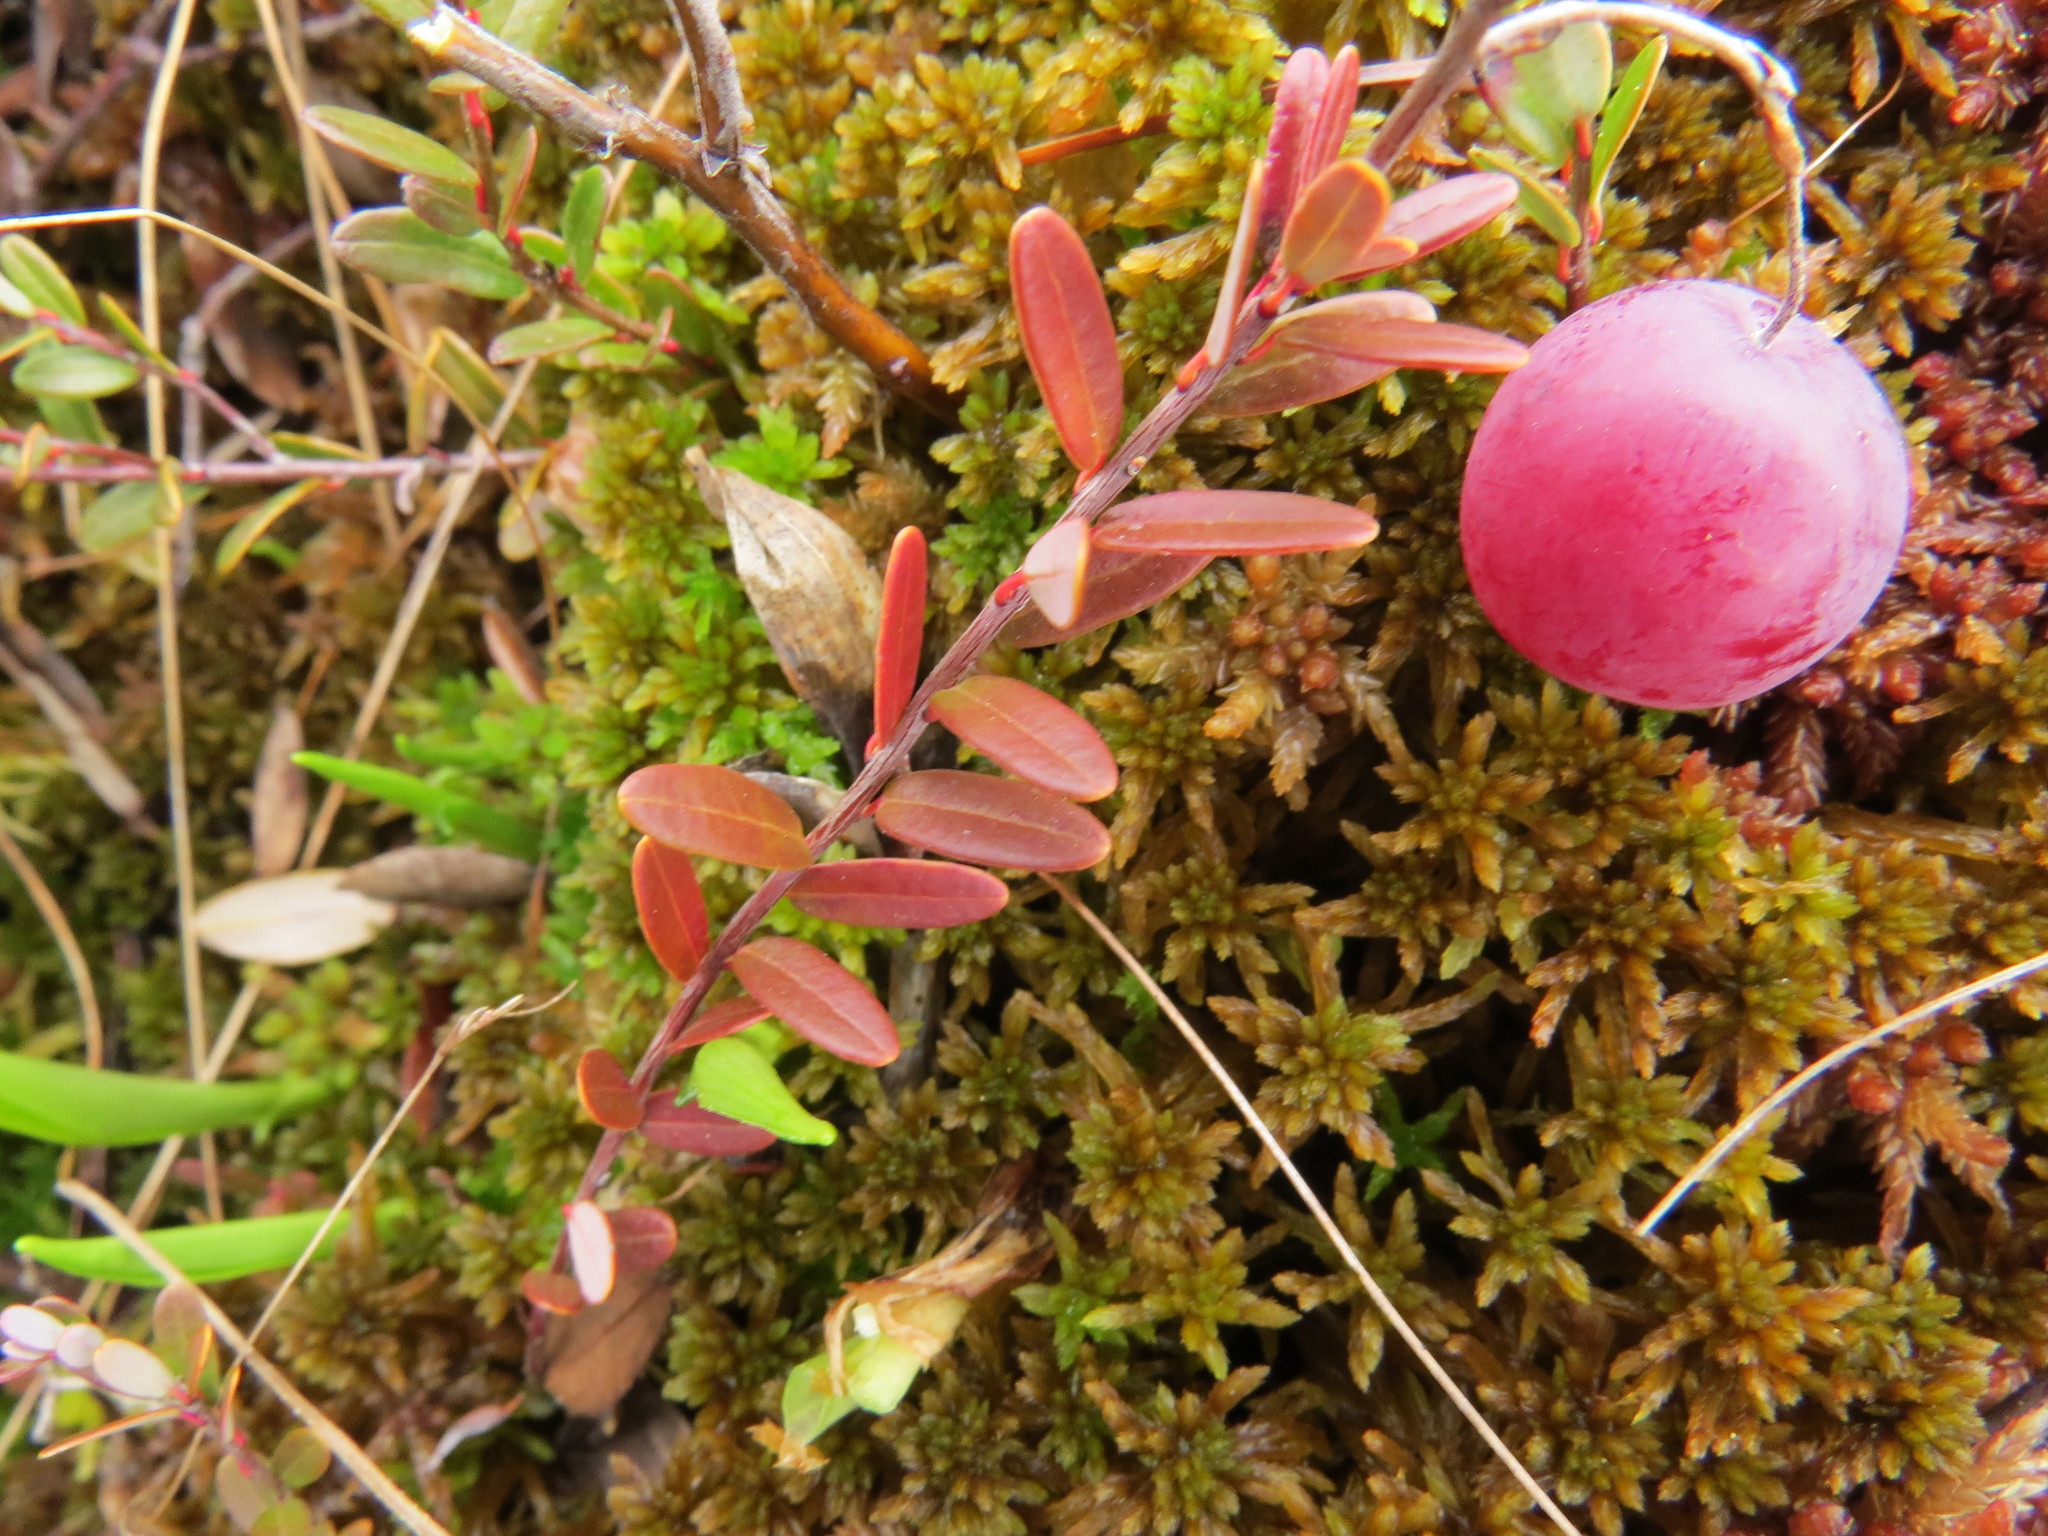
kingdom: Plantae
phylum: Tracheophyta
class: Magnoliopsida
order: Ericales
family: Ericaceae
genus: Vaccinium
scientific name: Vaccinium macrocarpon
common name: American cranberry
